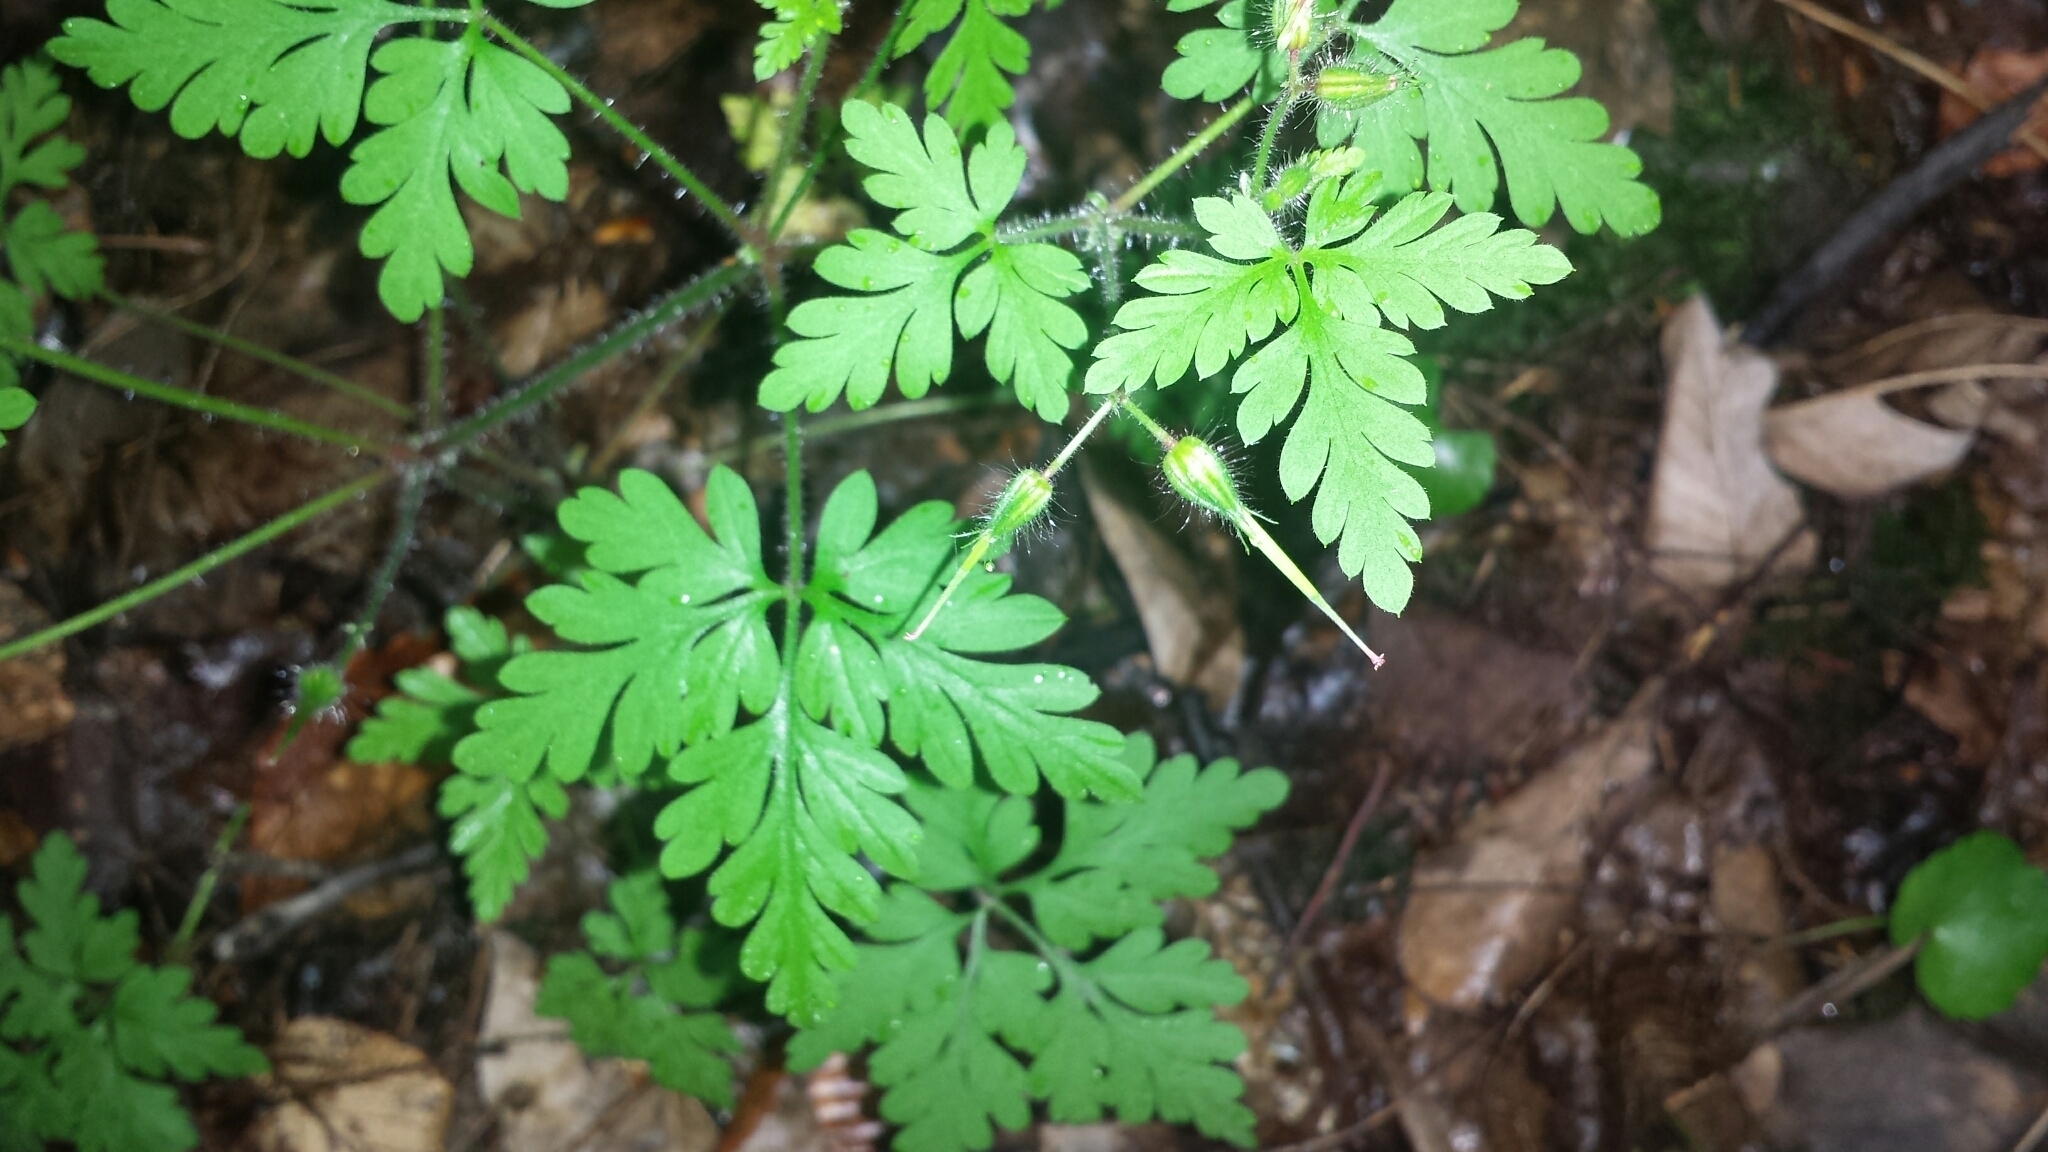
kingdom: Plantae
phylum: Tracheophyta
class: Magnoliopsida
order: Geraniales
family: Geraniaceae
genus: Geranium
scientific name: Geranium robertianum
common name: Herb-robert
